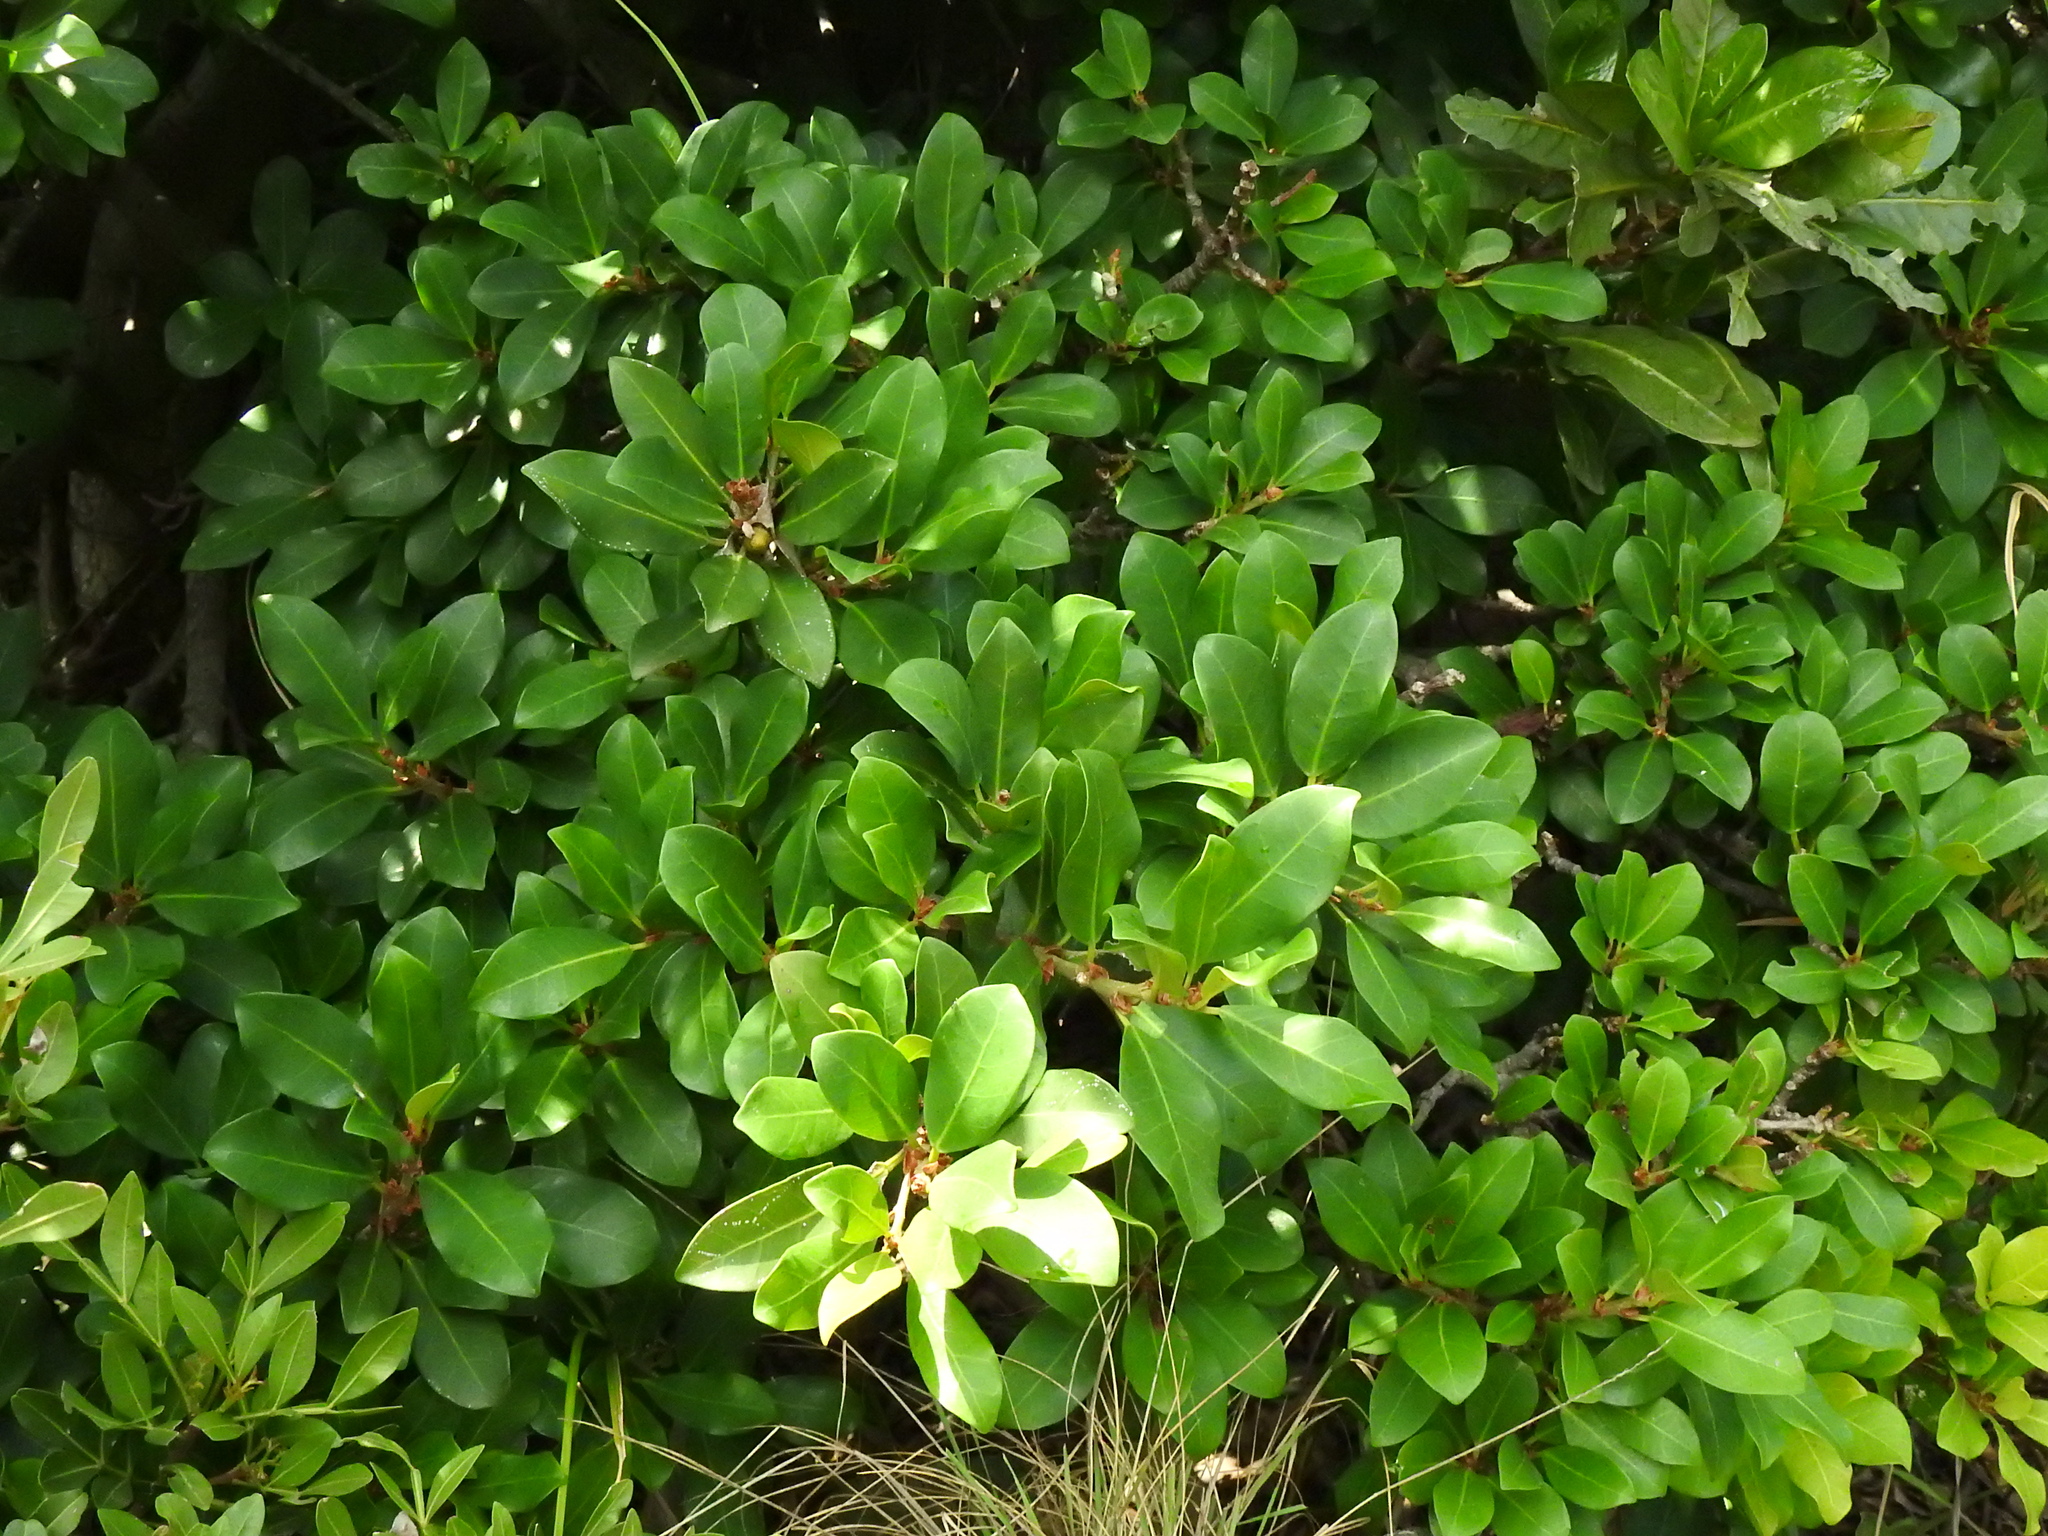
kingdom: Plantae
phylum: Tracheophyta
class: Magnoliopsida
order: Ericales
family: Primulaceae
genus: Myrsine
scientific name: Myrsine melanophloeos
